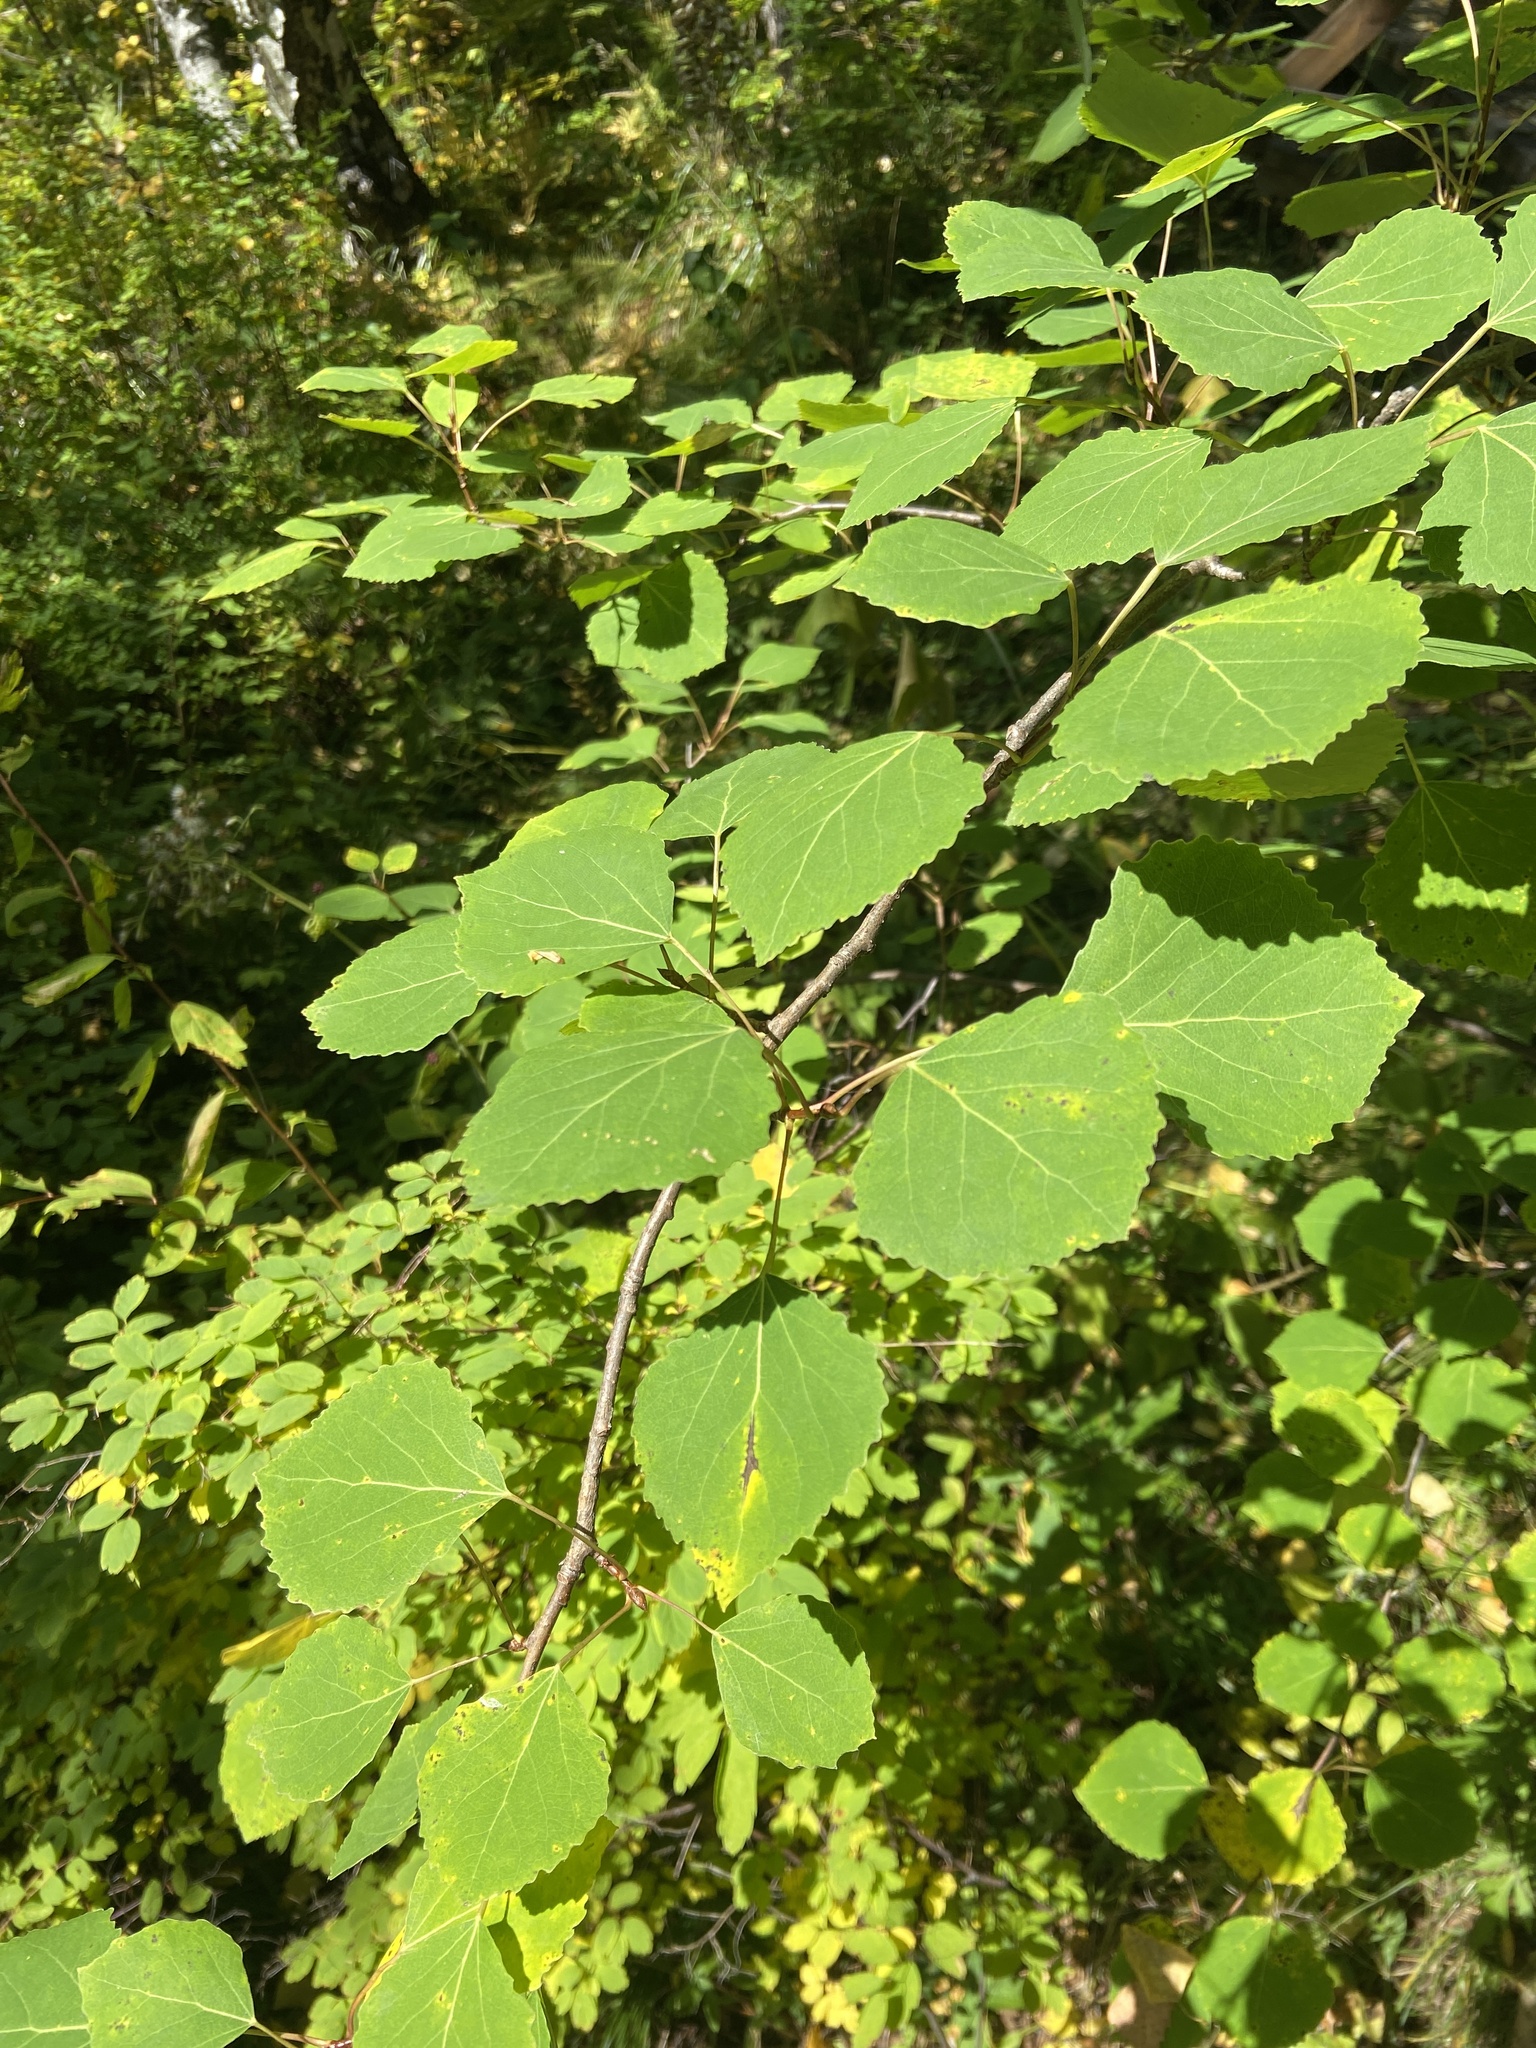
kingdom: Plantae
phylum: Tracheophyta
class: Magnoliopsida
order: Malpighiales
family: Salicaceae
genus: Populus
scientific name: Populus tremula
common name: European aspen
